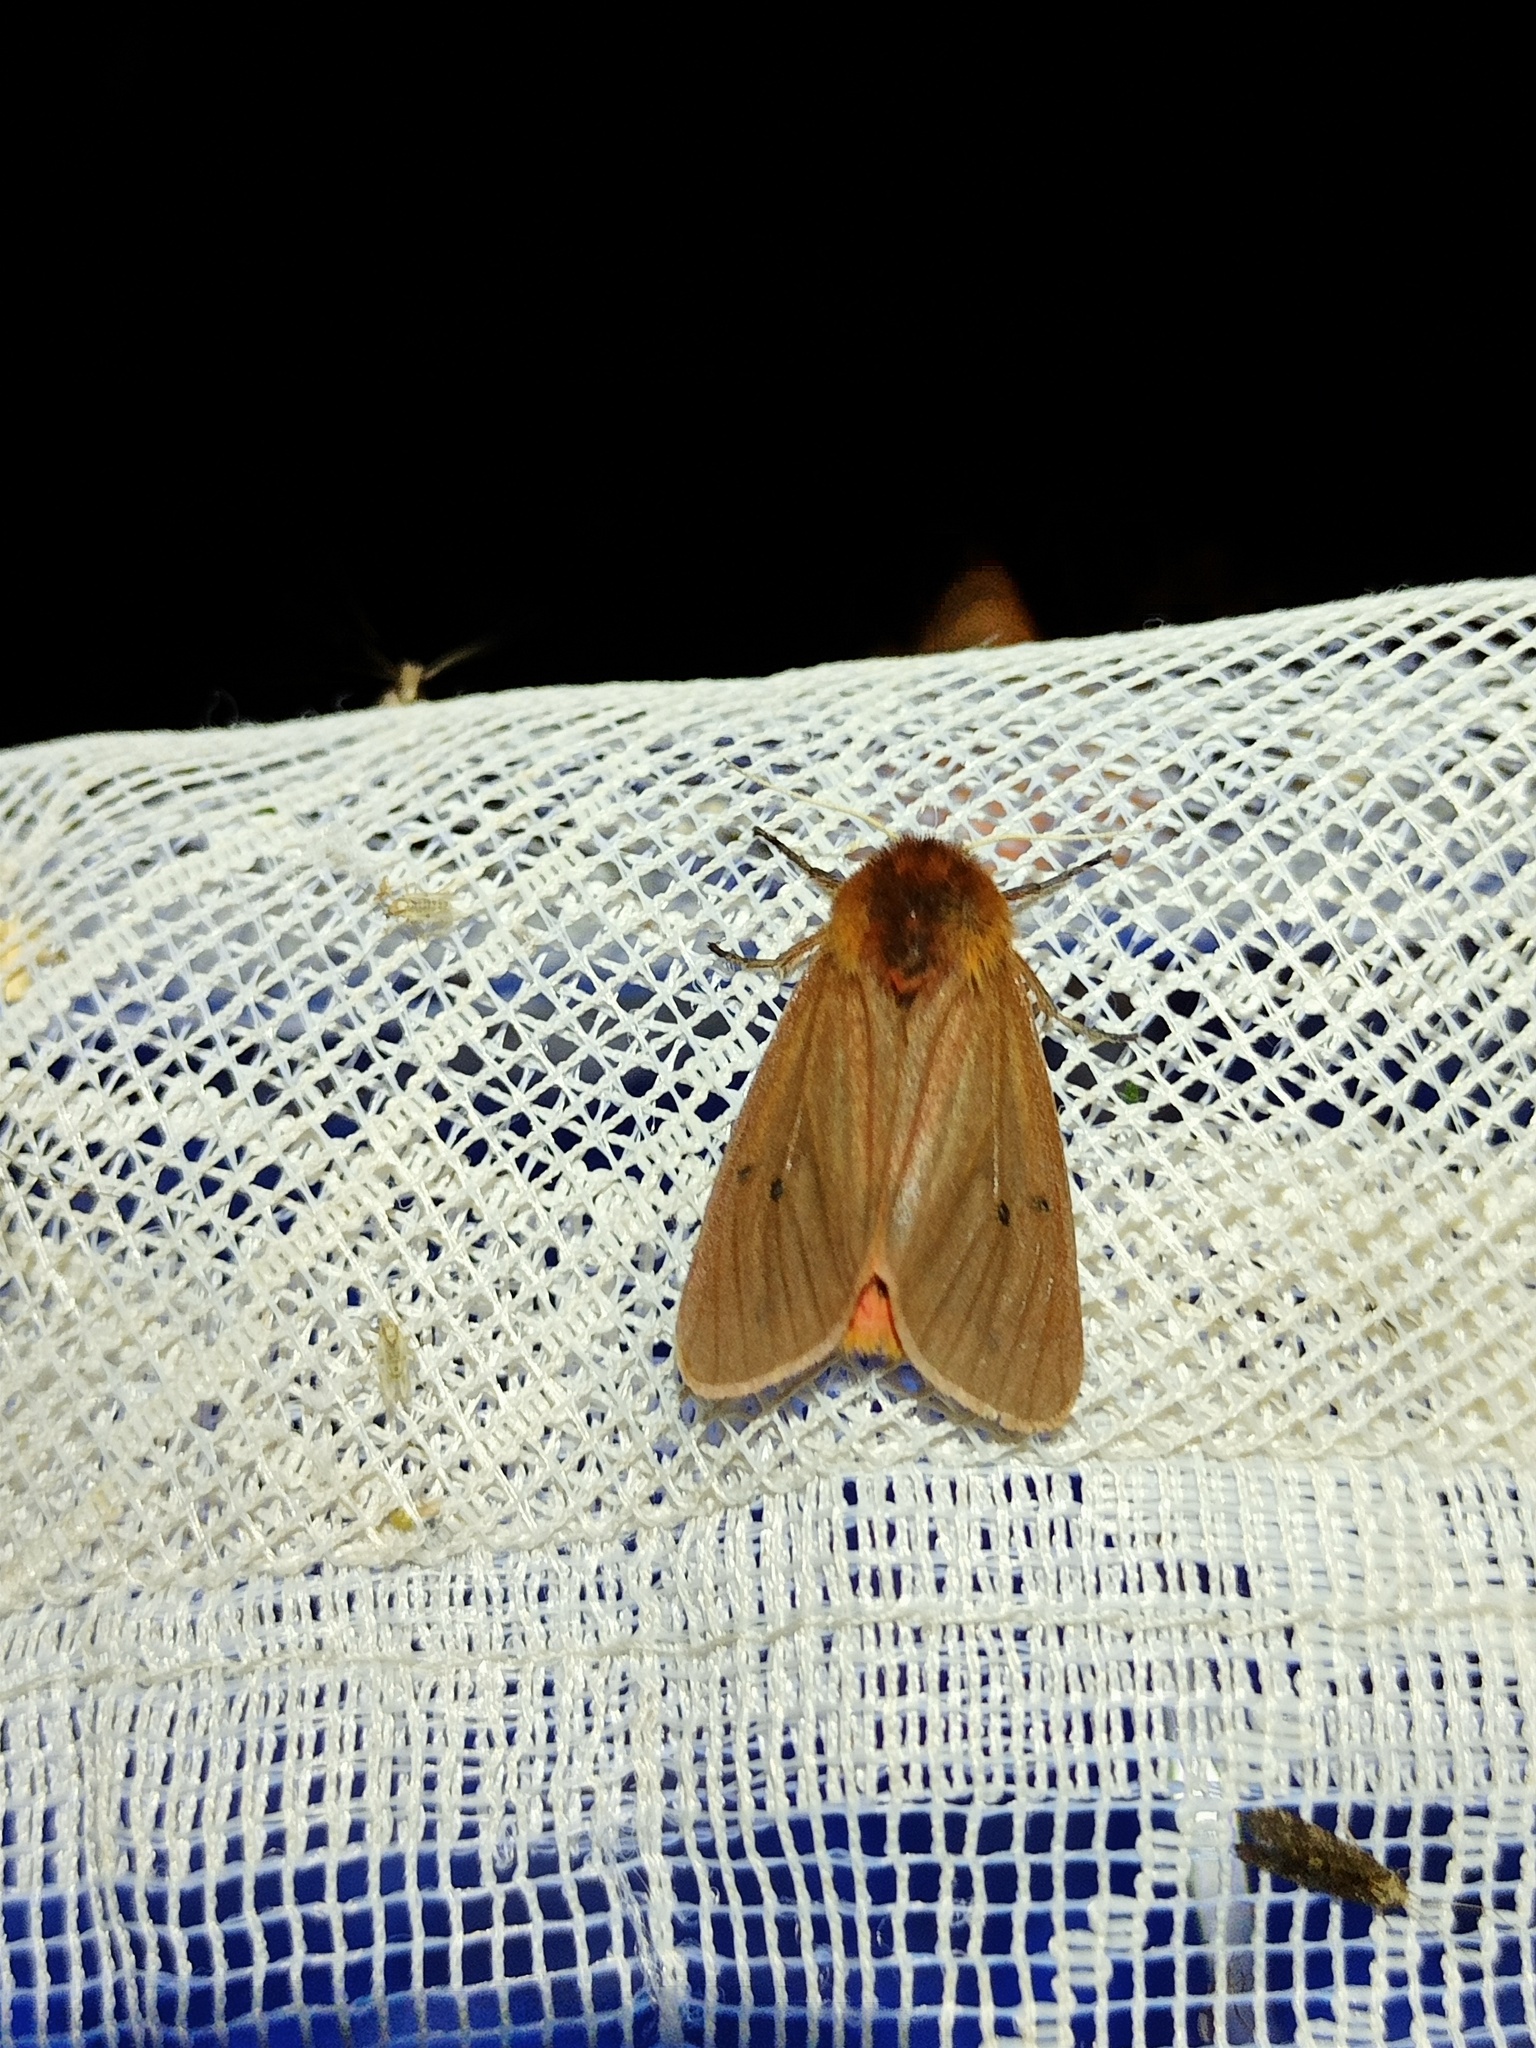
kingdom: Animalia
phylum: Arthropoda
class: Insecta
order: Lepidoptera
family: Erebidae
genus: Phragmatobia
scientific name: Phragmatobia fuliginosa
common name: Ruby tiger
